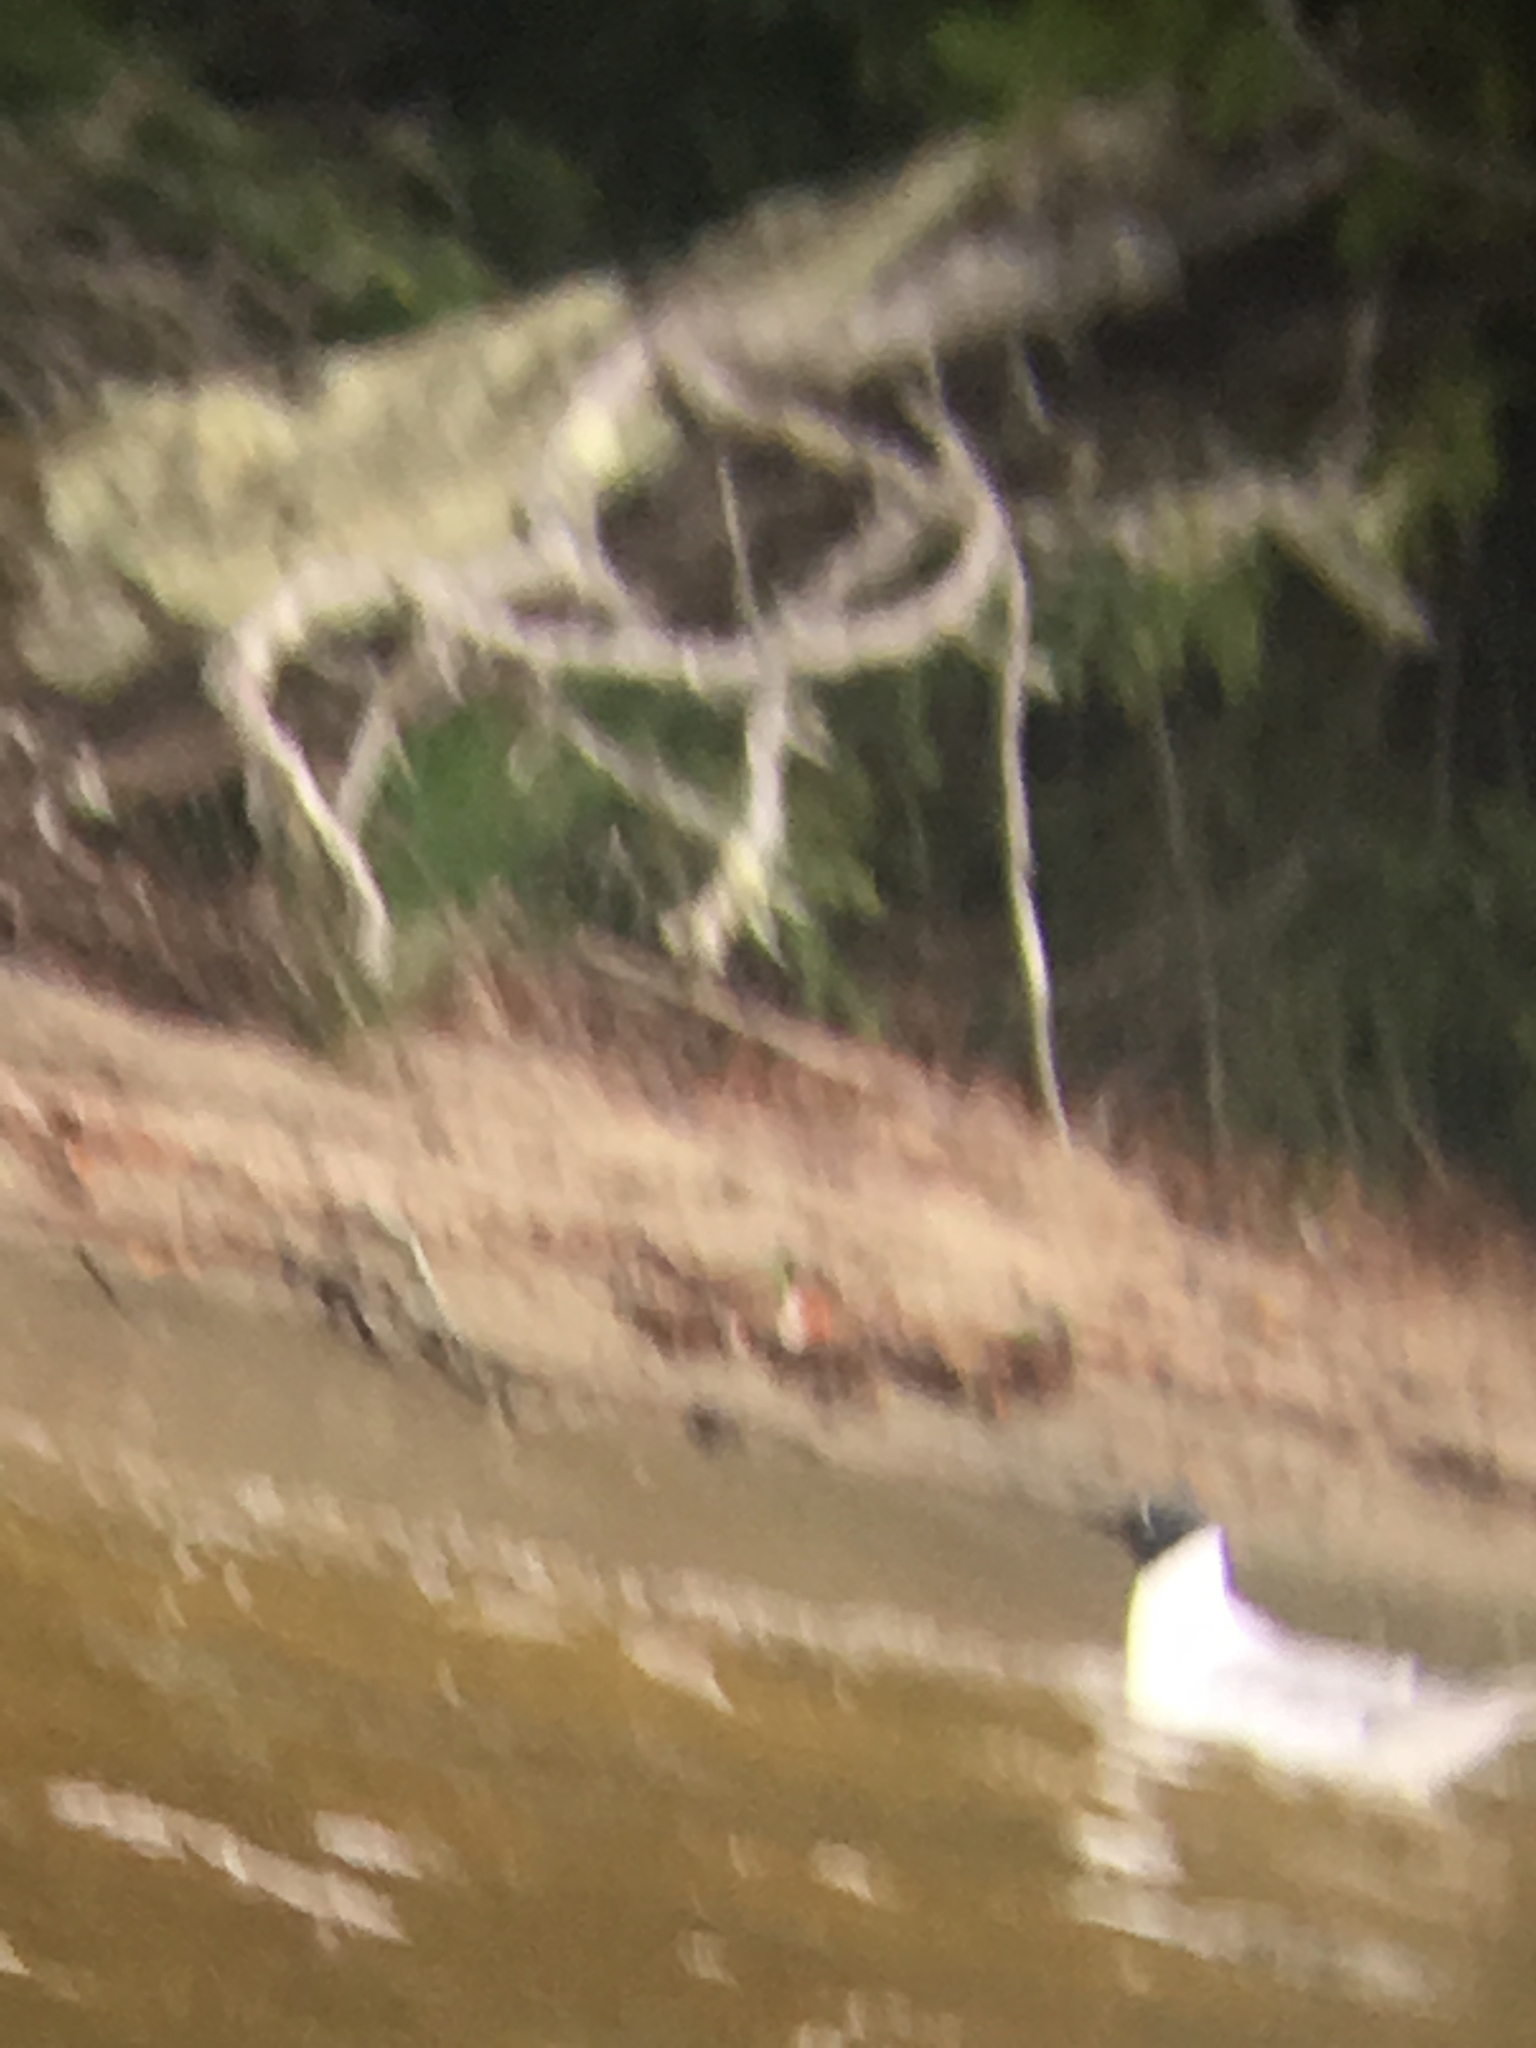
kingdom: Animalia
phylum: Chordata
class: Aves
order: Charadriiformes
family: Laridae
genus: Chroicocephalus
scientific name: Chroicocephalus philadelphia
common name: Bonaparte's gull
